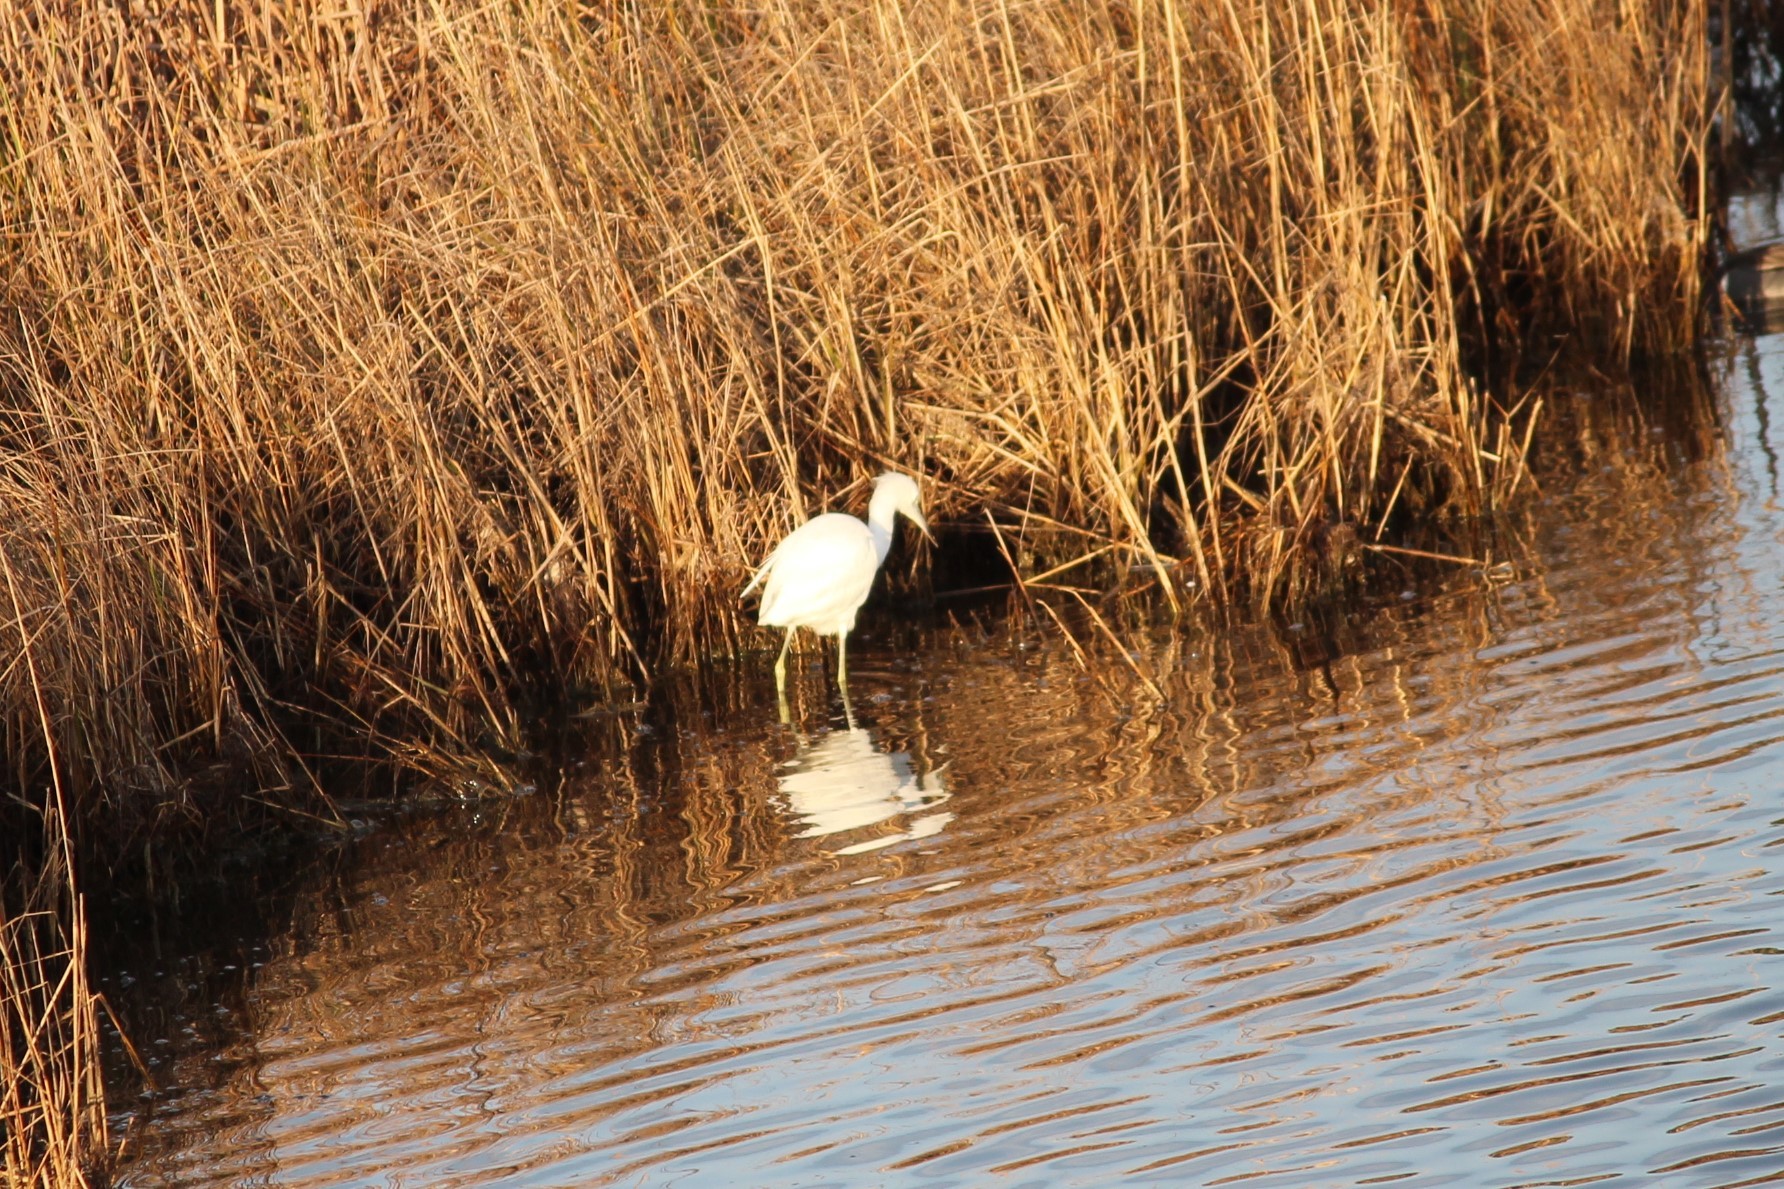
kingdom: Animalia
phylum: Chordata
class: Aves
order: Pelecaniformes
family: Ardeidae
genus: Egretta
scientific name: Egretta caerulea
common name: Little blue heron
